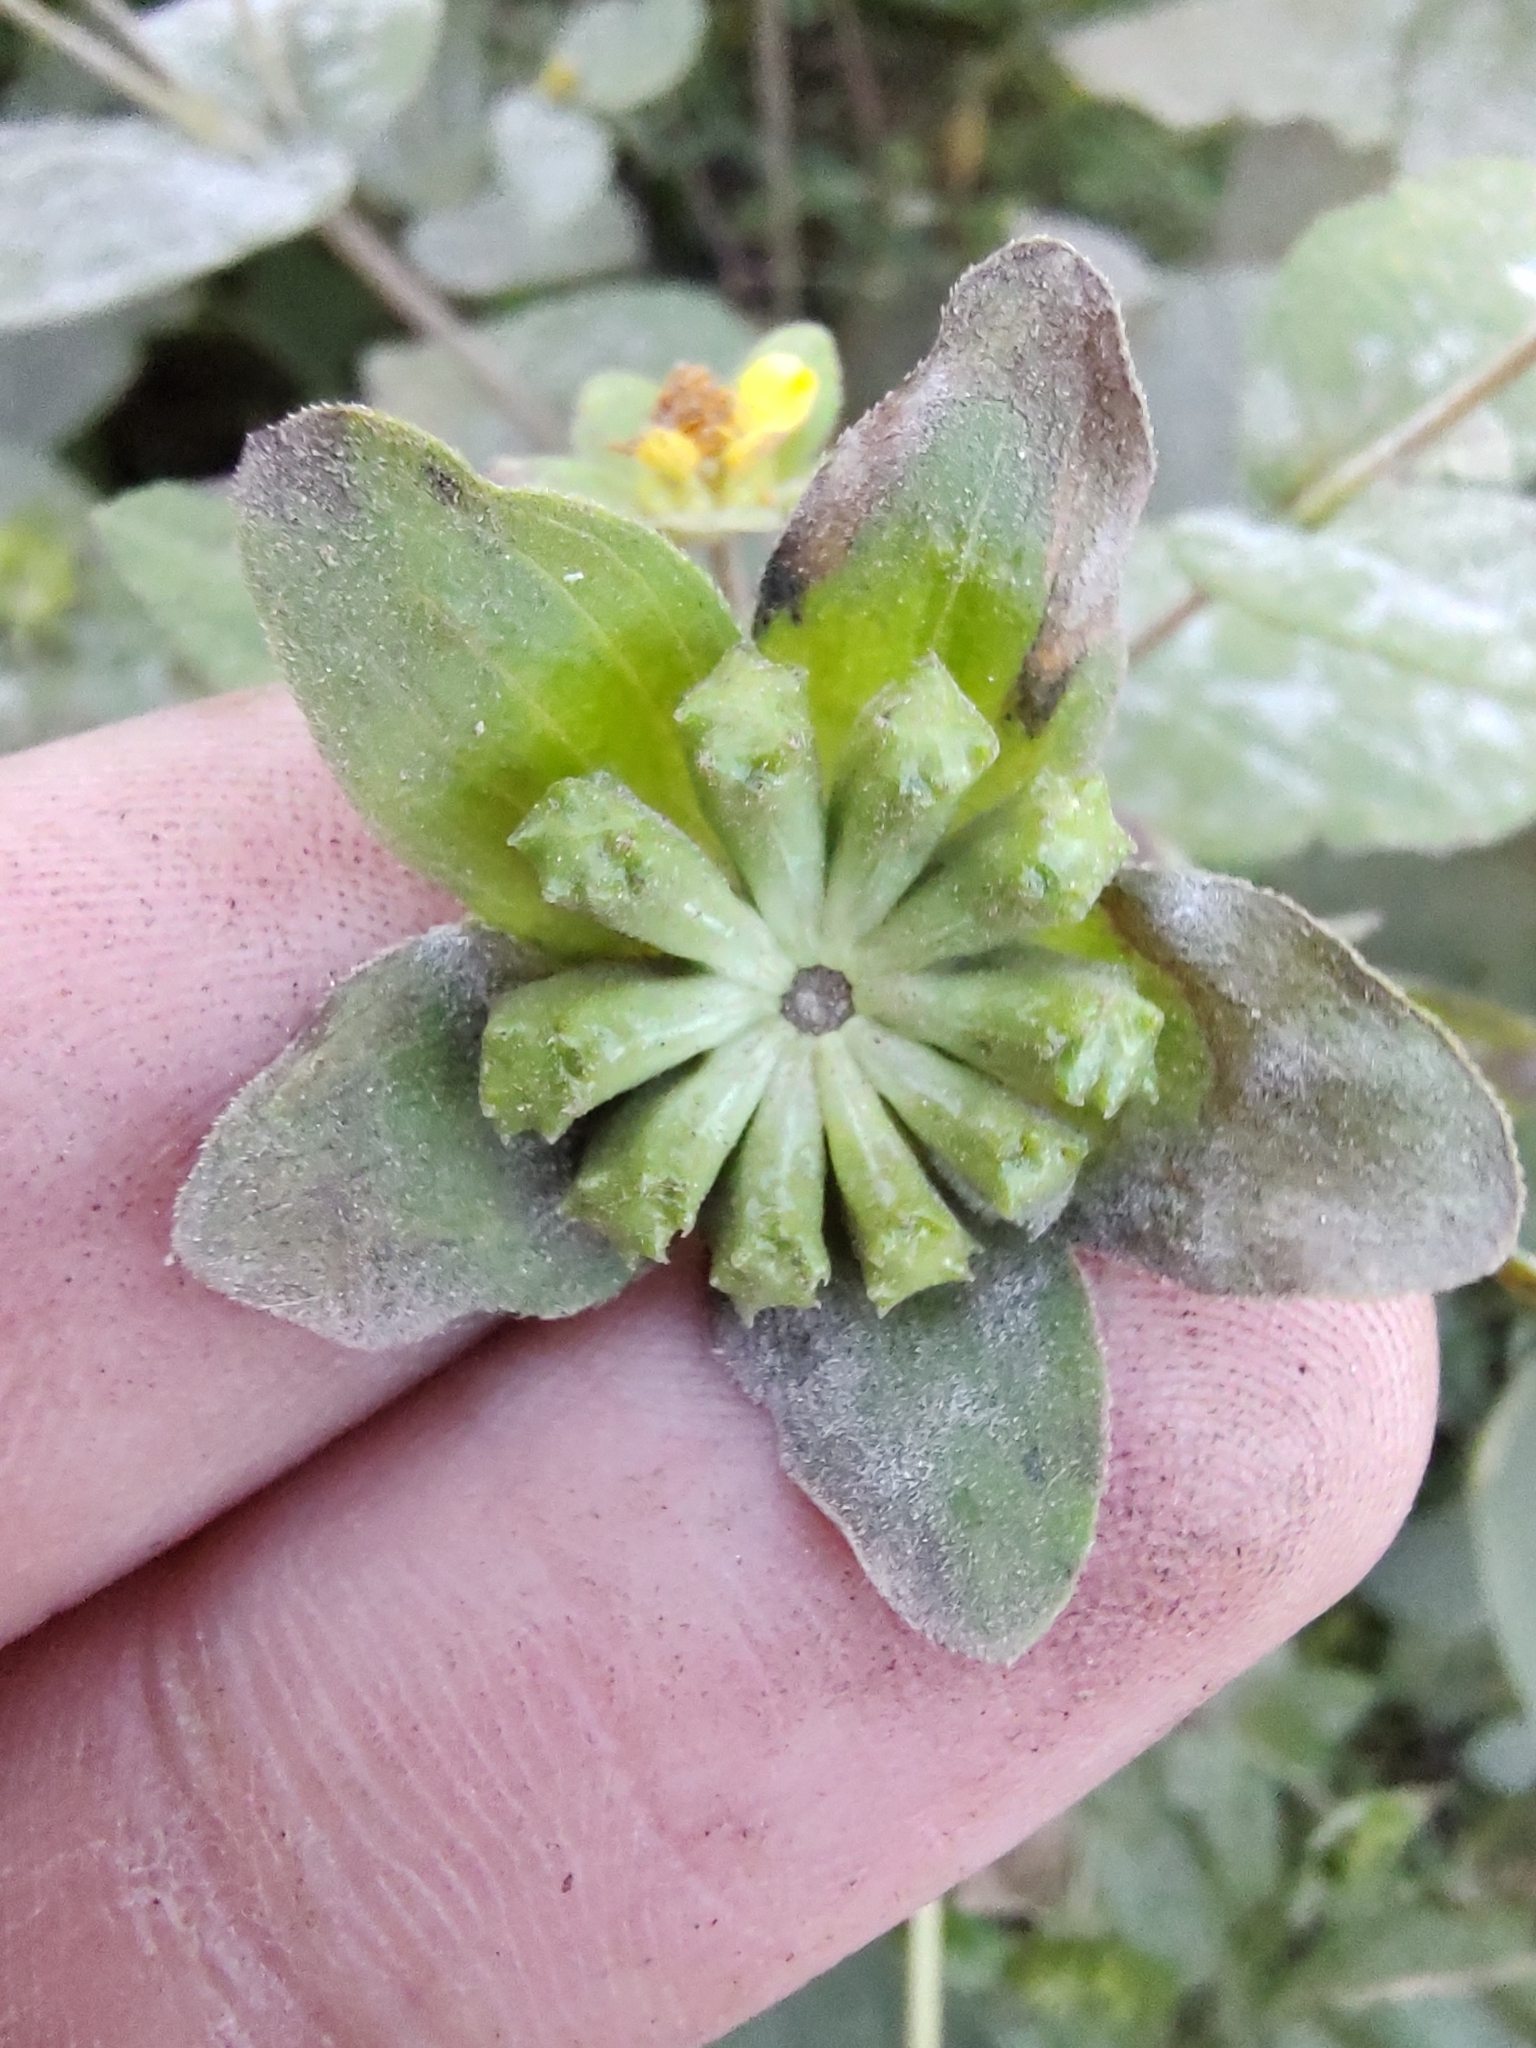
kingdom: Plantae
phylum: Tracheophyta
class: Magnoliopsida
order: Asterales
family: Asteraceae
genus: Melampodium
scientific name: Melampodium perfoliatum
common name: Perfoliate blackfoot
